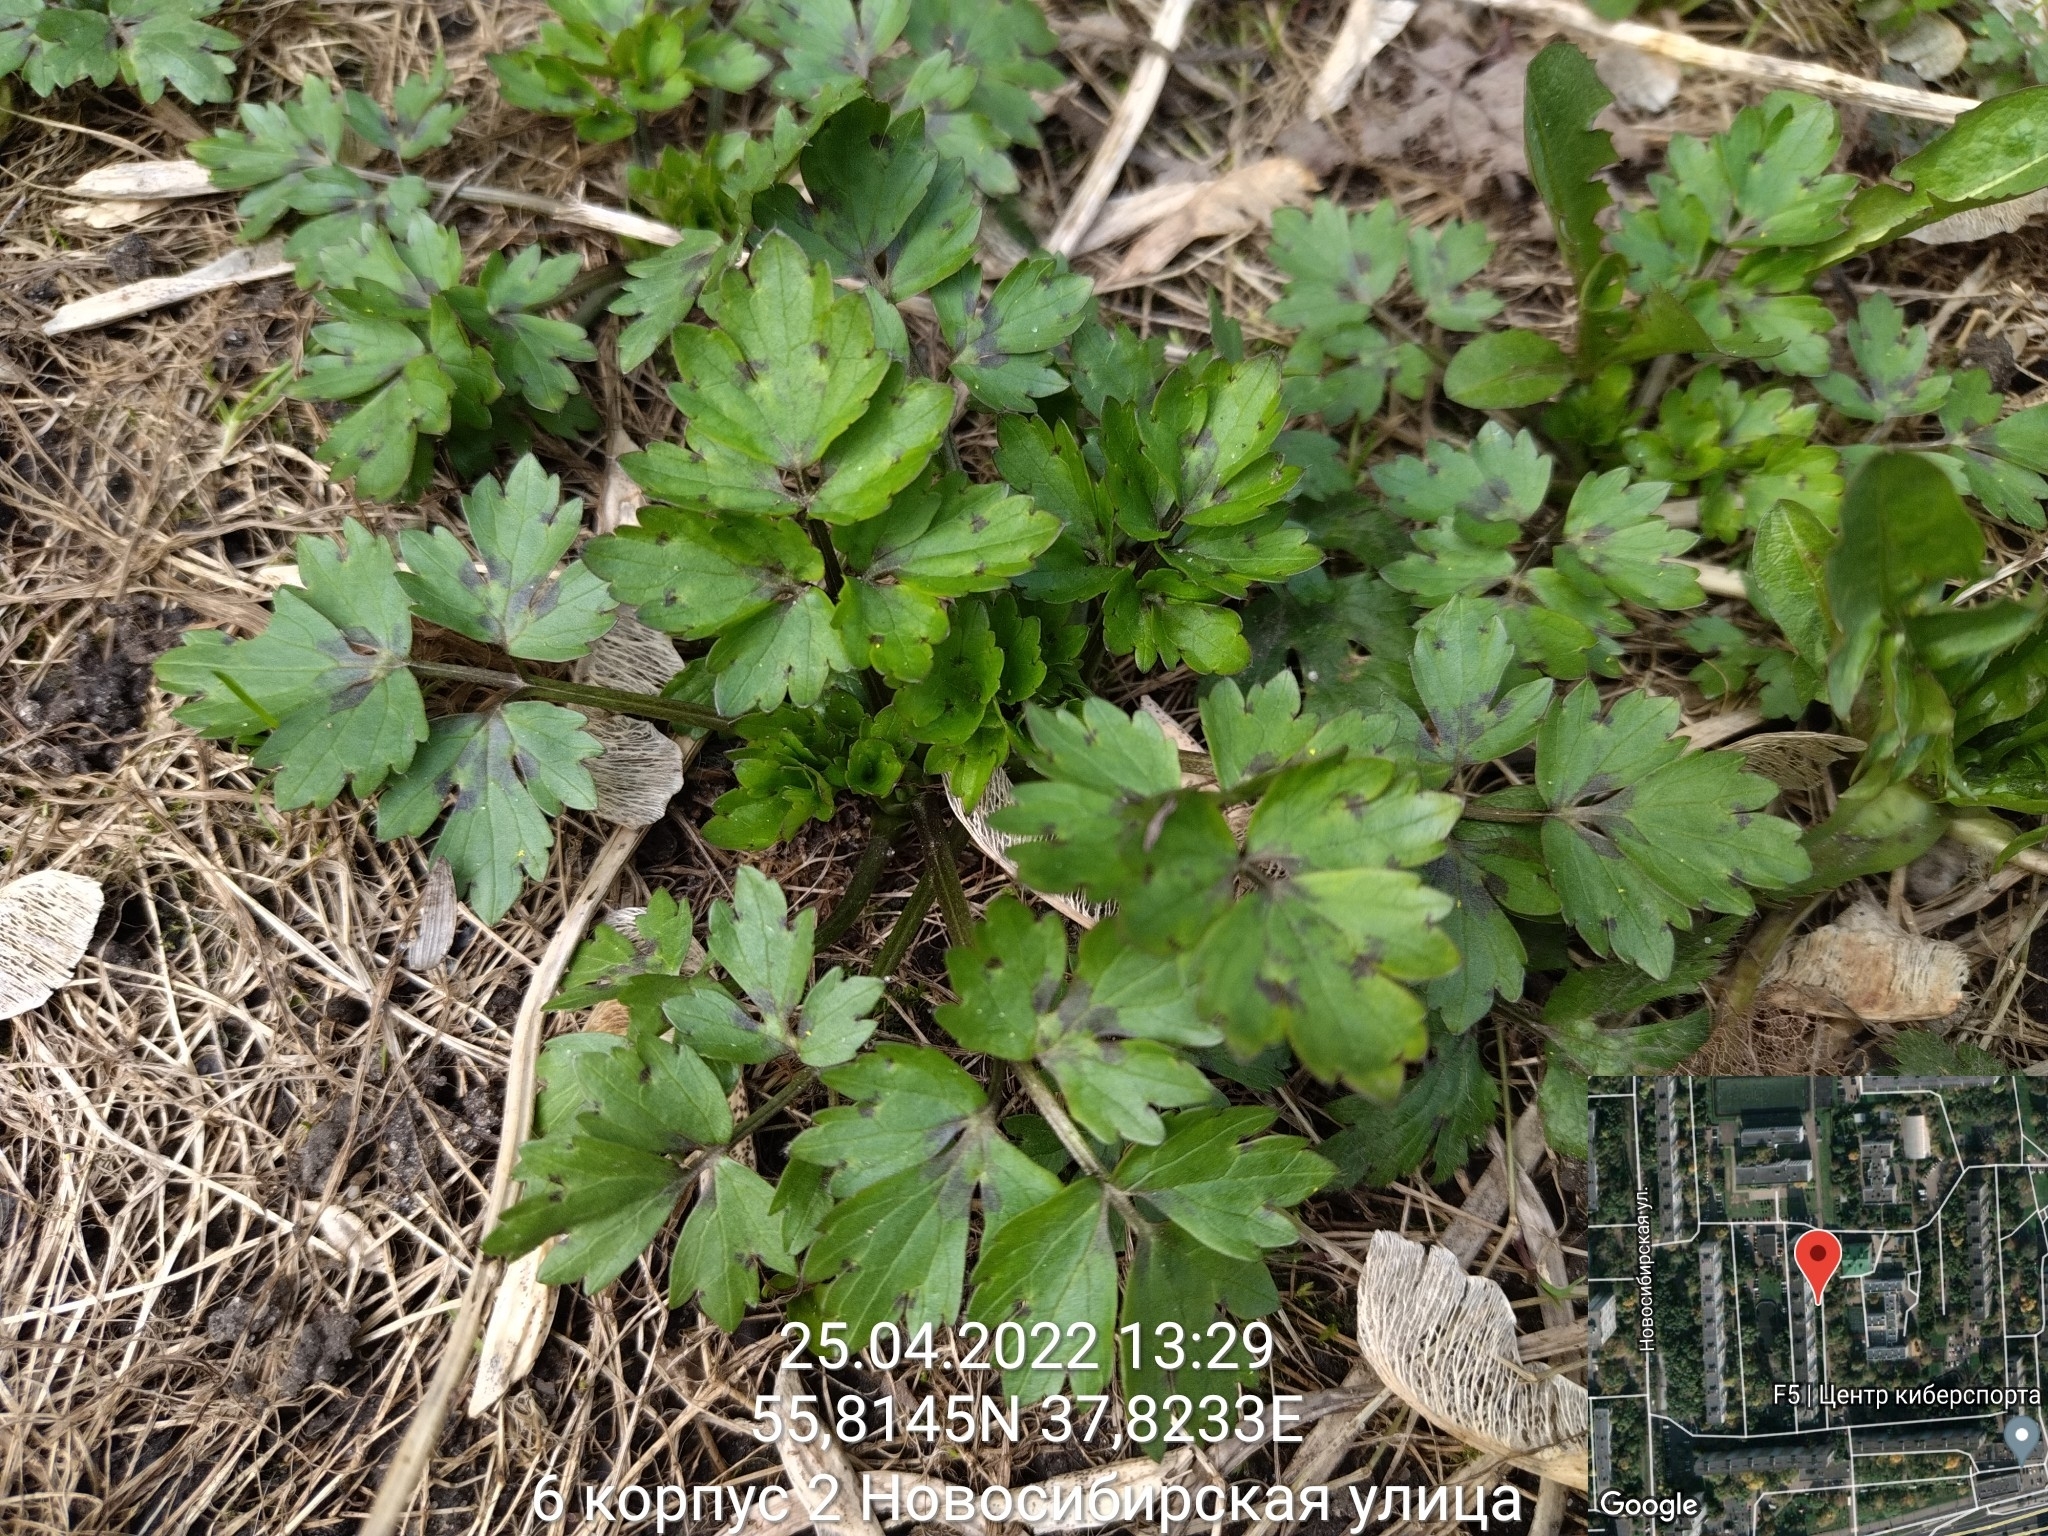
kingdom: Plantae
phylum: Tracheophyta
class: Magnoliopsida
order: Ranunculales
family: Ranunculaceae
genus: Ranunculus
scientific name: Ranunculus repens
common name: Creeping buttercup
